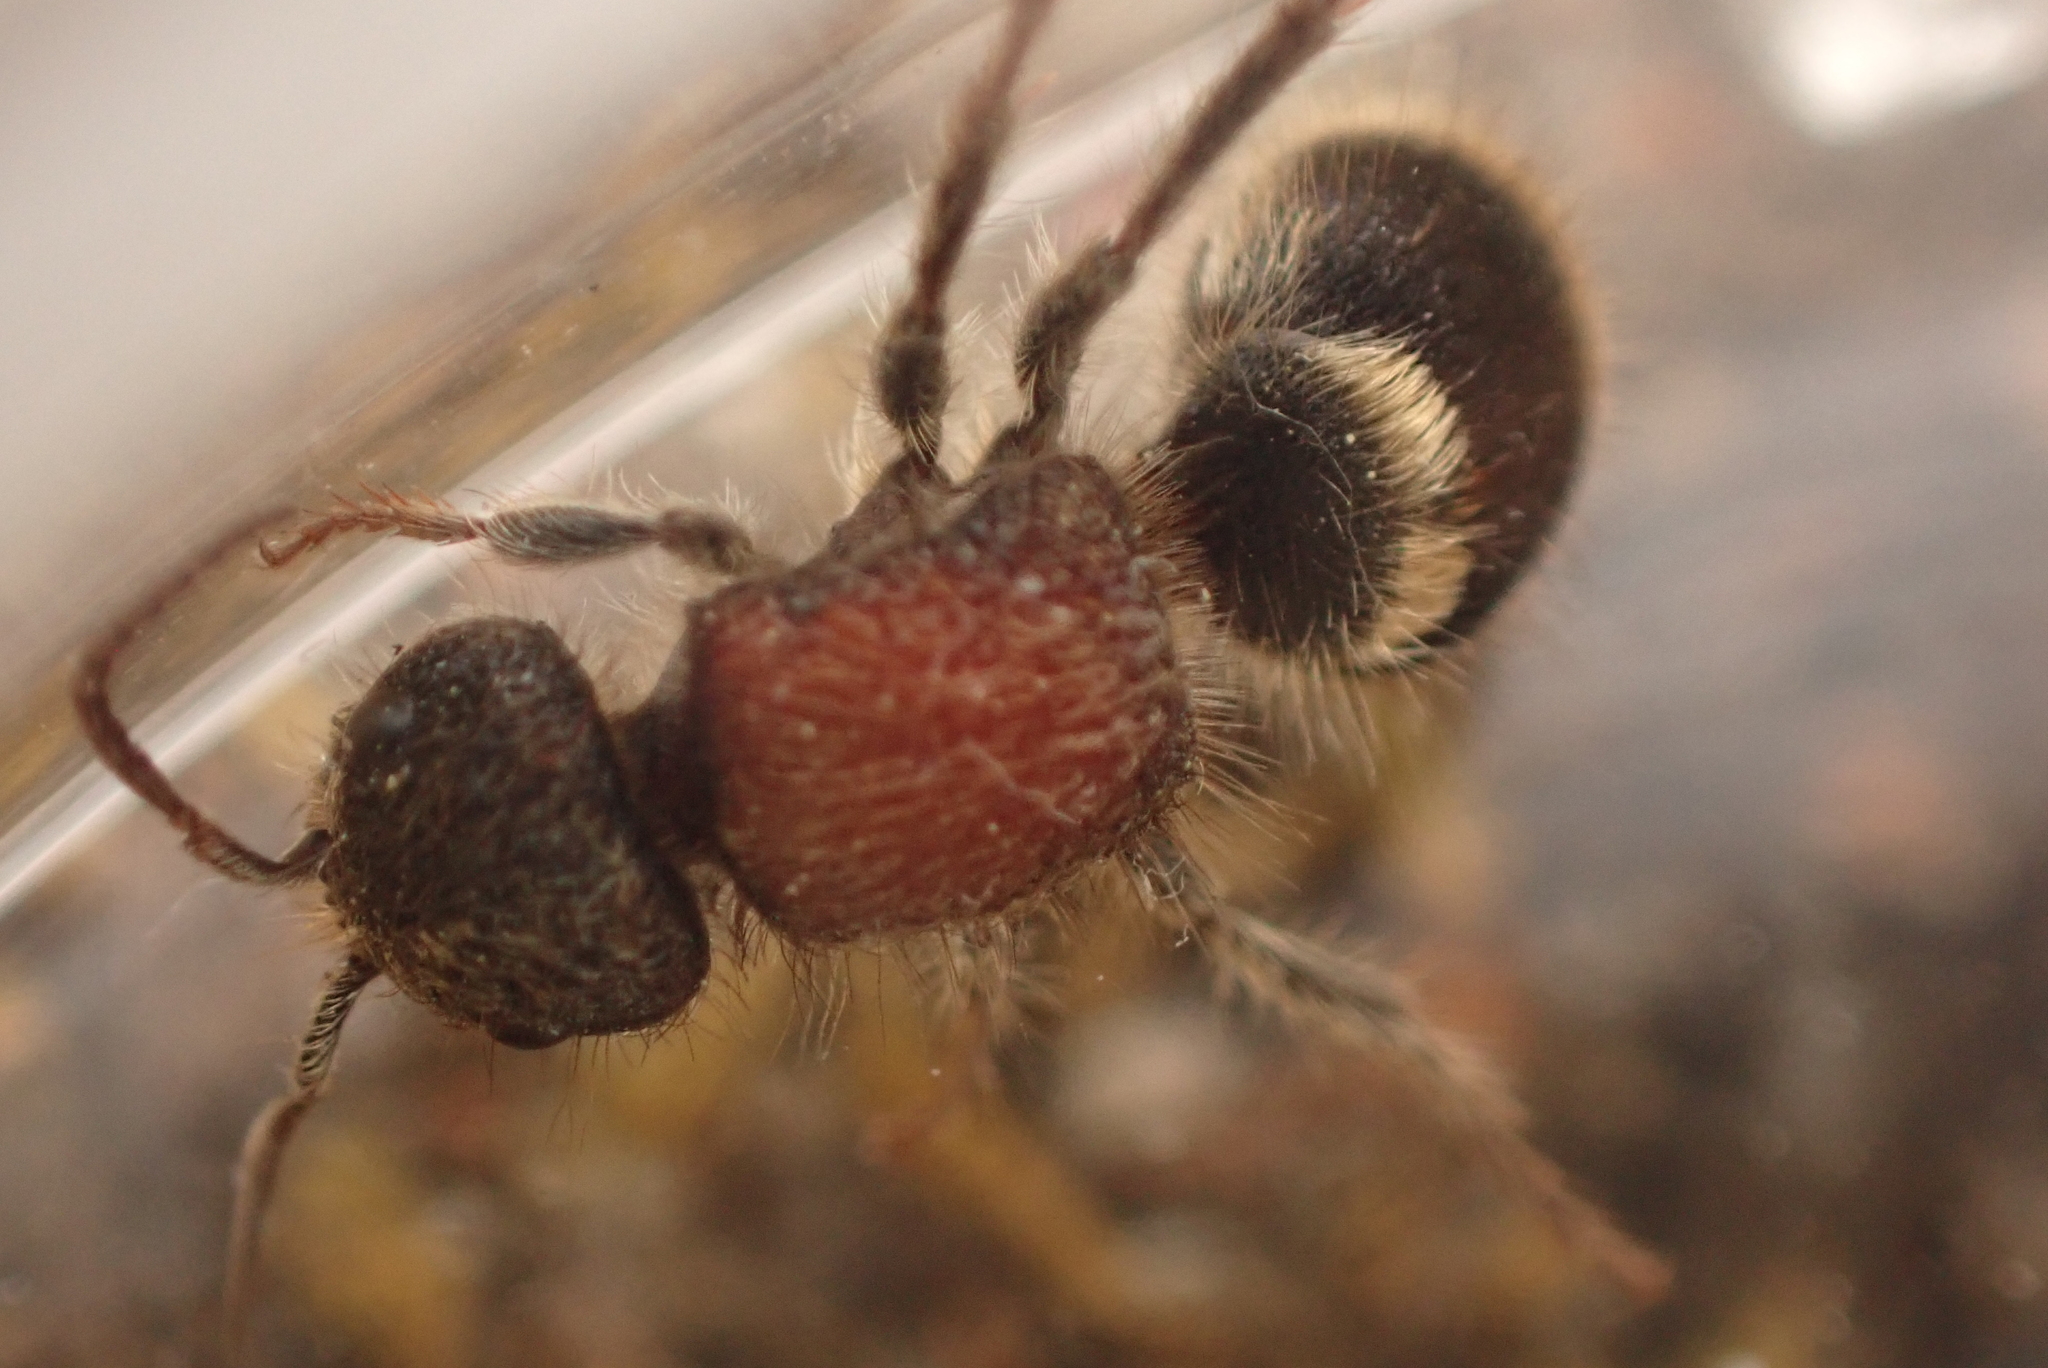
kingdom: Animalia
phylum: Arthropoda
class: Insecta
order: Hymenoptera
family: Mutillidae
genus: Tropidotilla
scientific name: Tropidotilla litoralis
